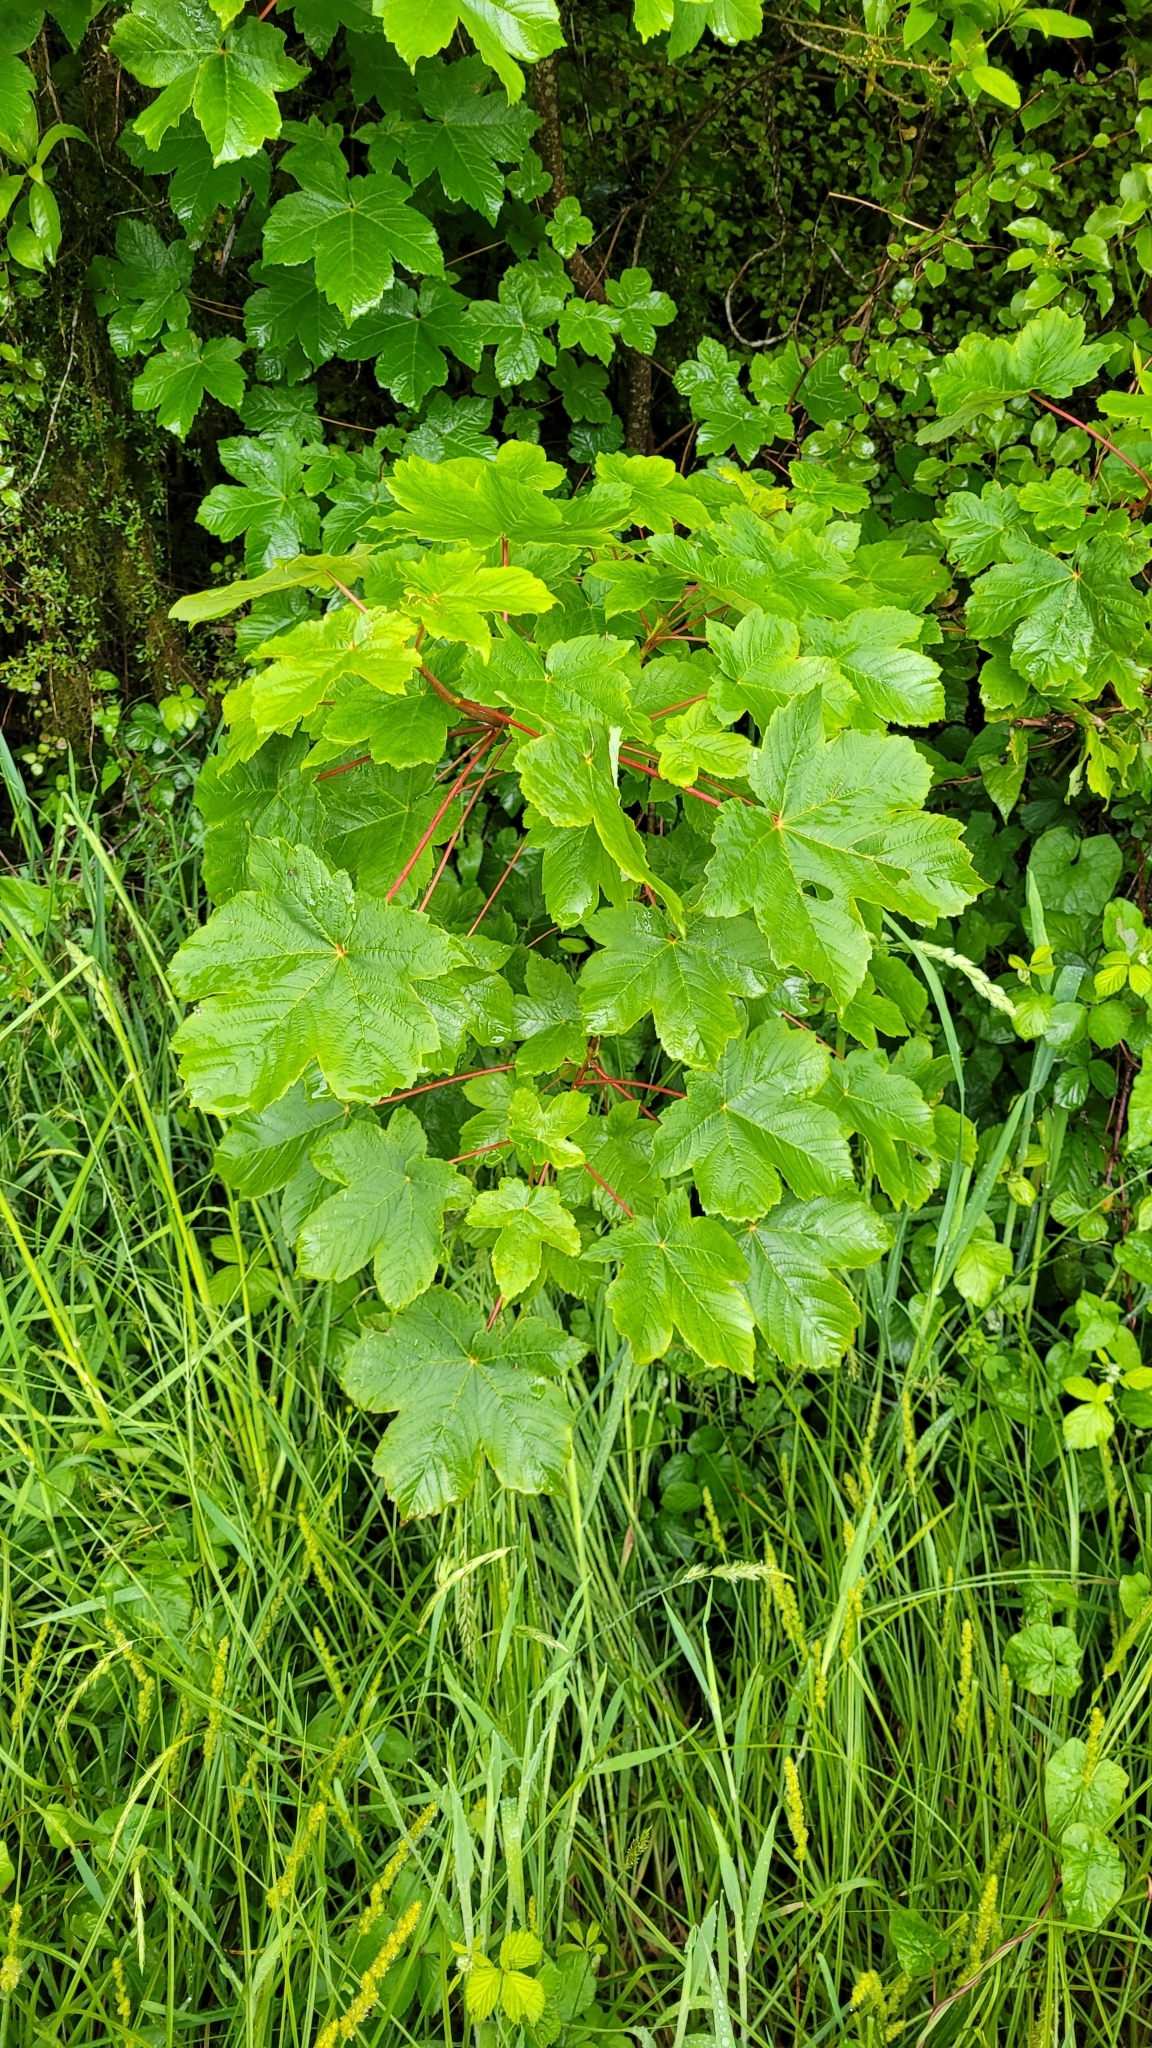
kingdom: Plantae
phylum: Tracheophyta
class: Magnoliopsida
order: Sapindales
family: Sapindaceae
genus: Acer
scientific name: Acer pseudoplatanus
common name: Sycamore
